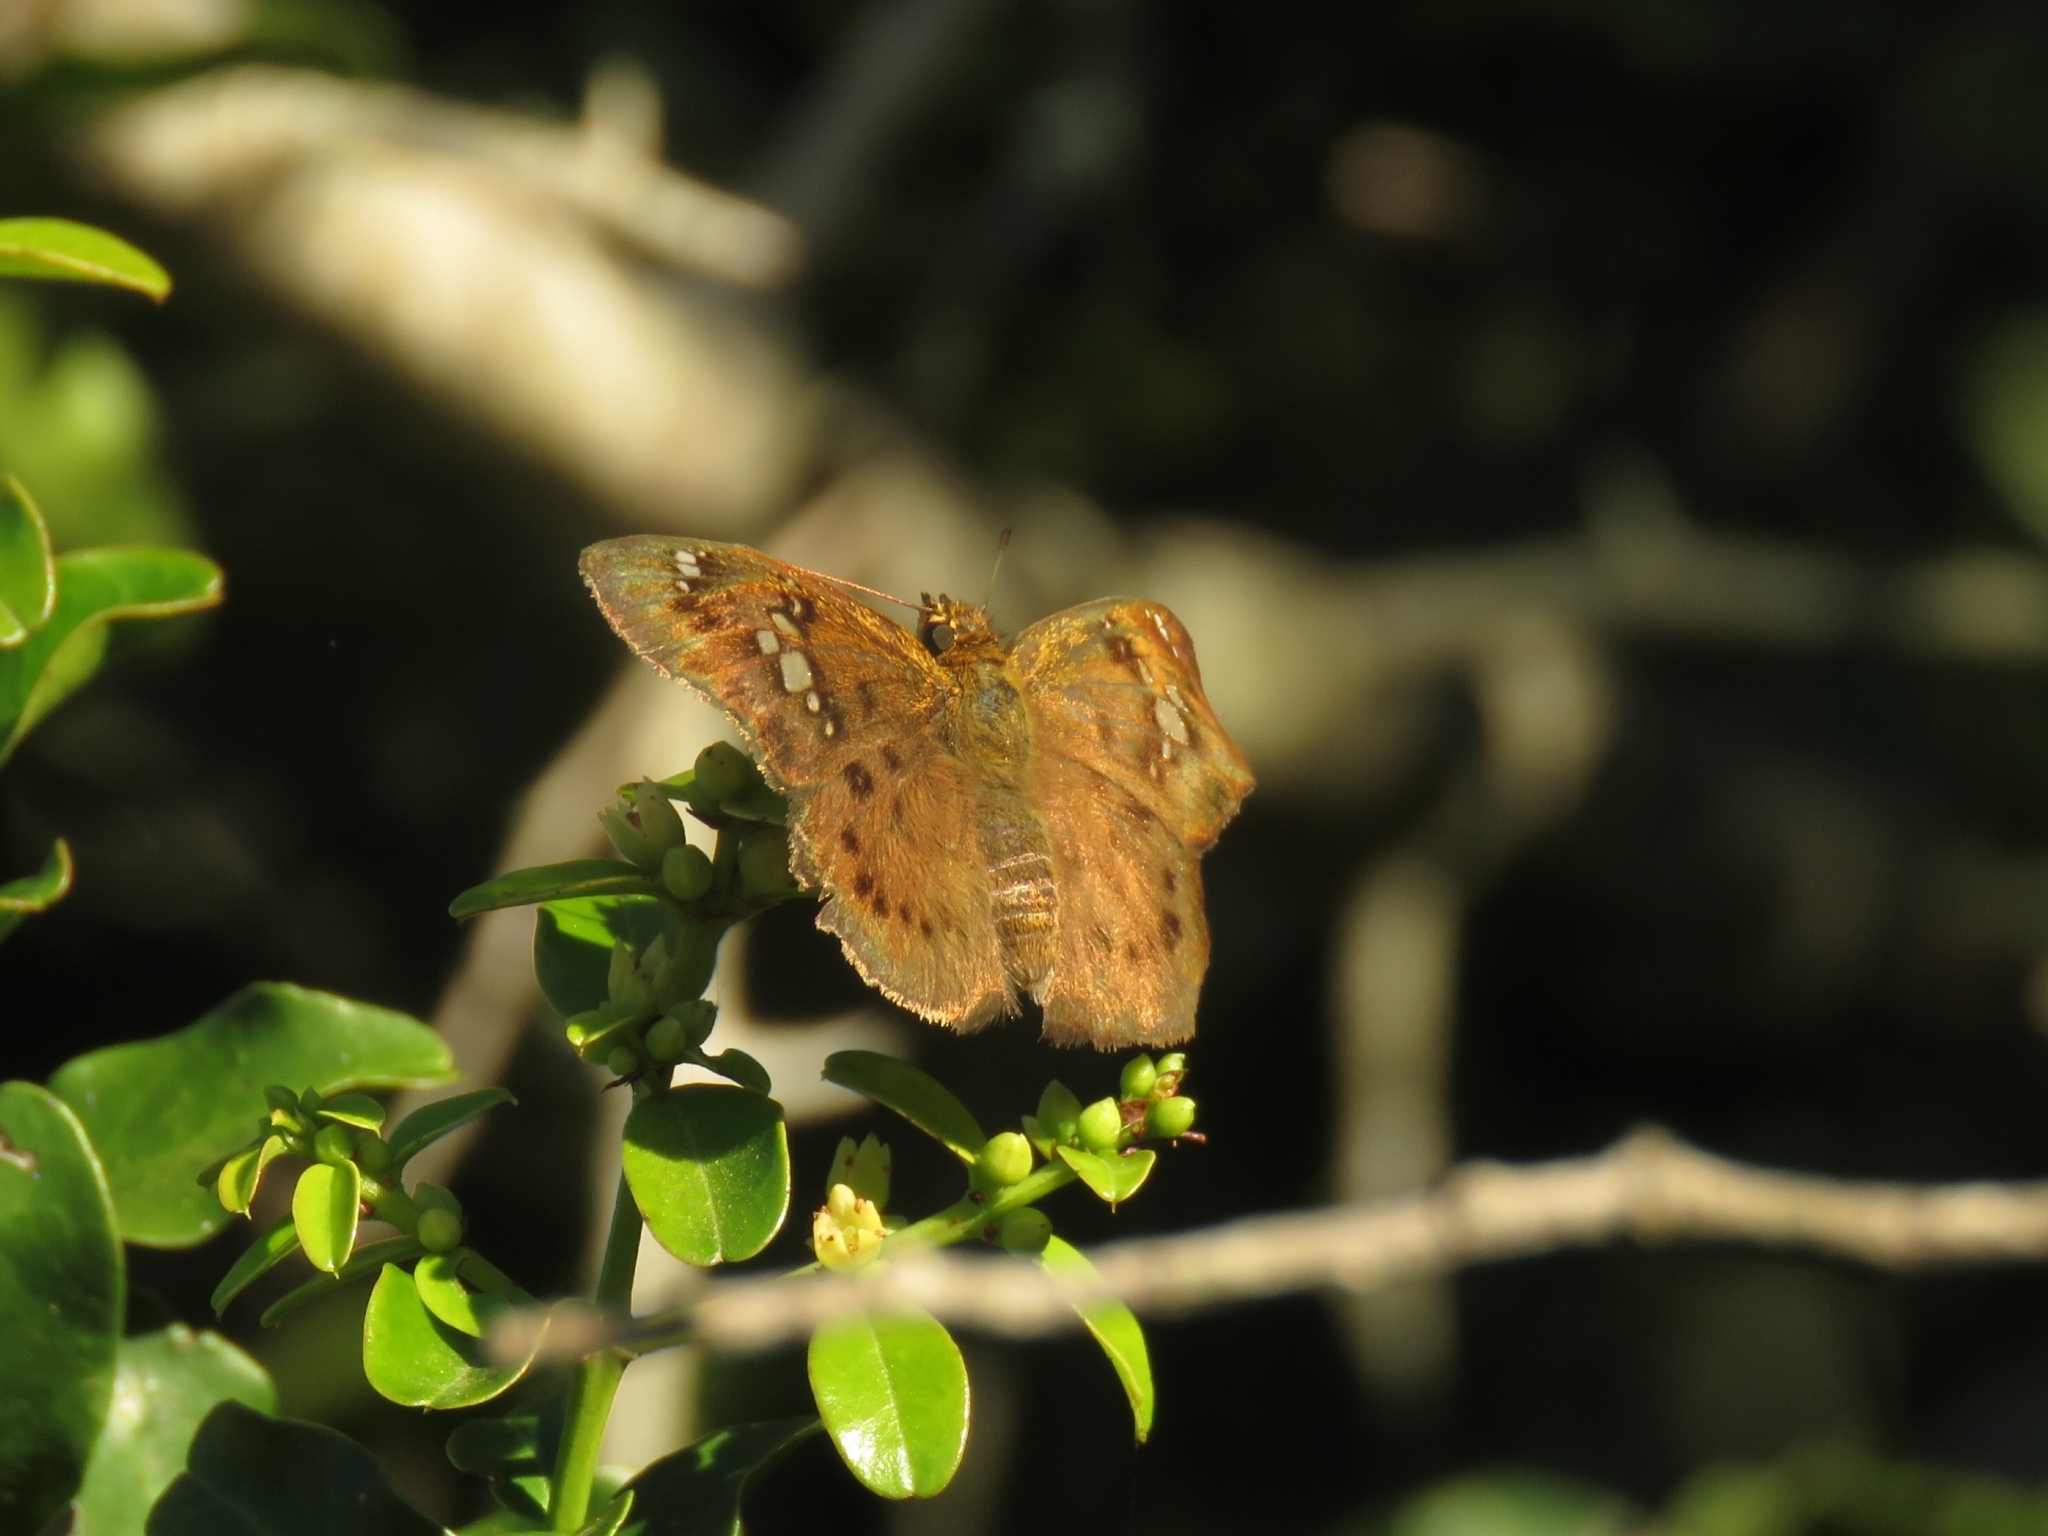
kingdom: Animalia
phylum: Arthropoda
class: Insecta
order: Lepidoptera
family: Hesperiidae
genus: Eagris
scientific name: Eagris nottoana
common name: Rufous-winged flat
